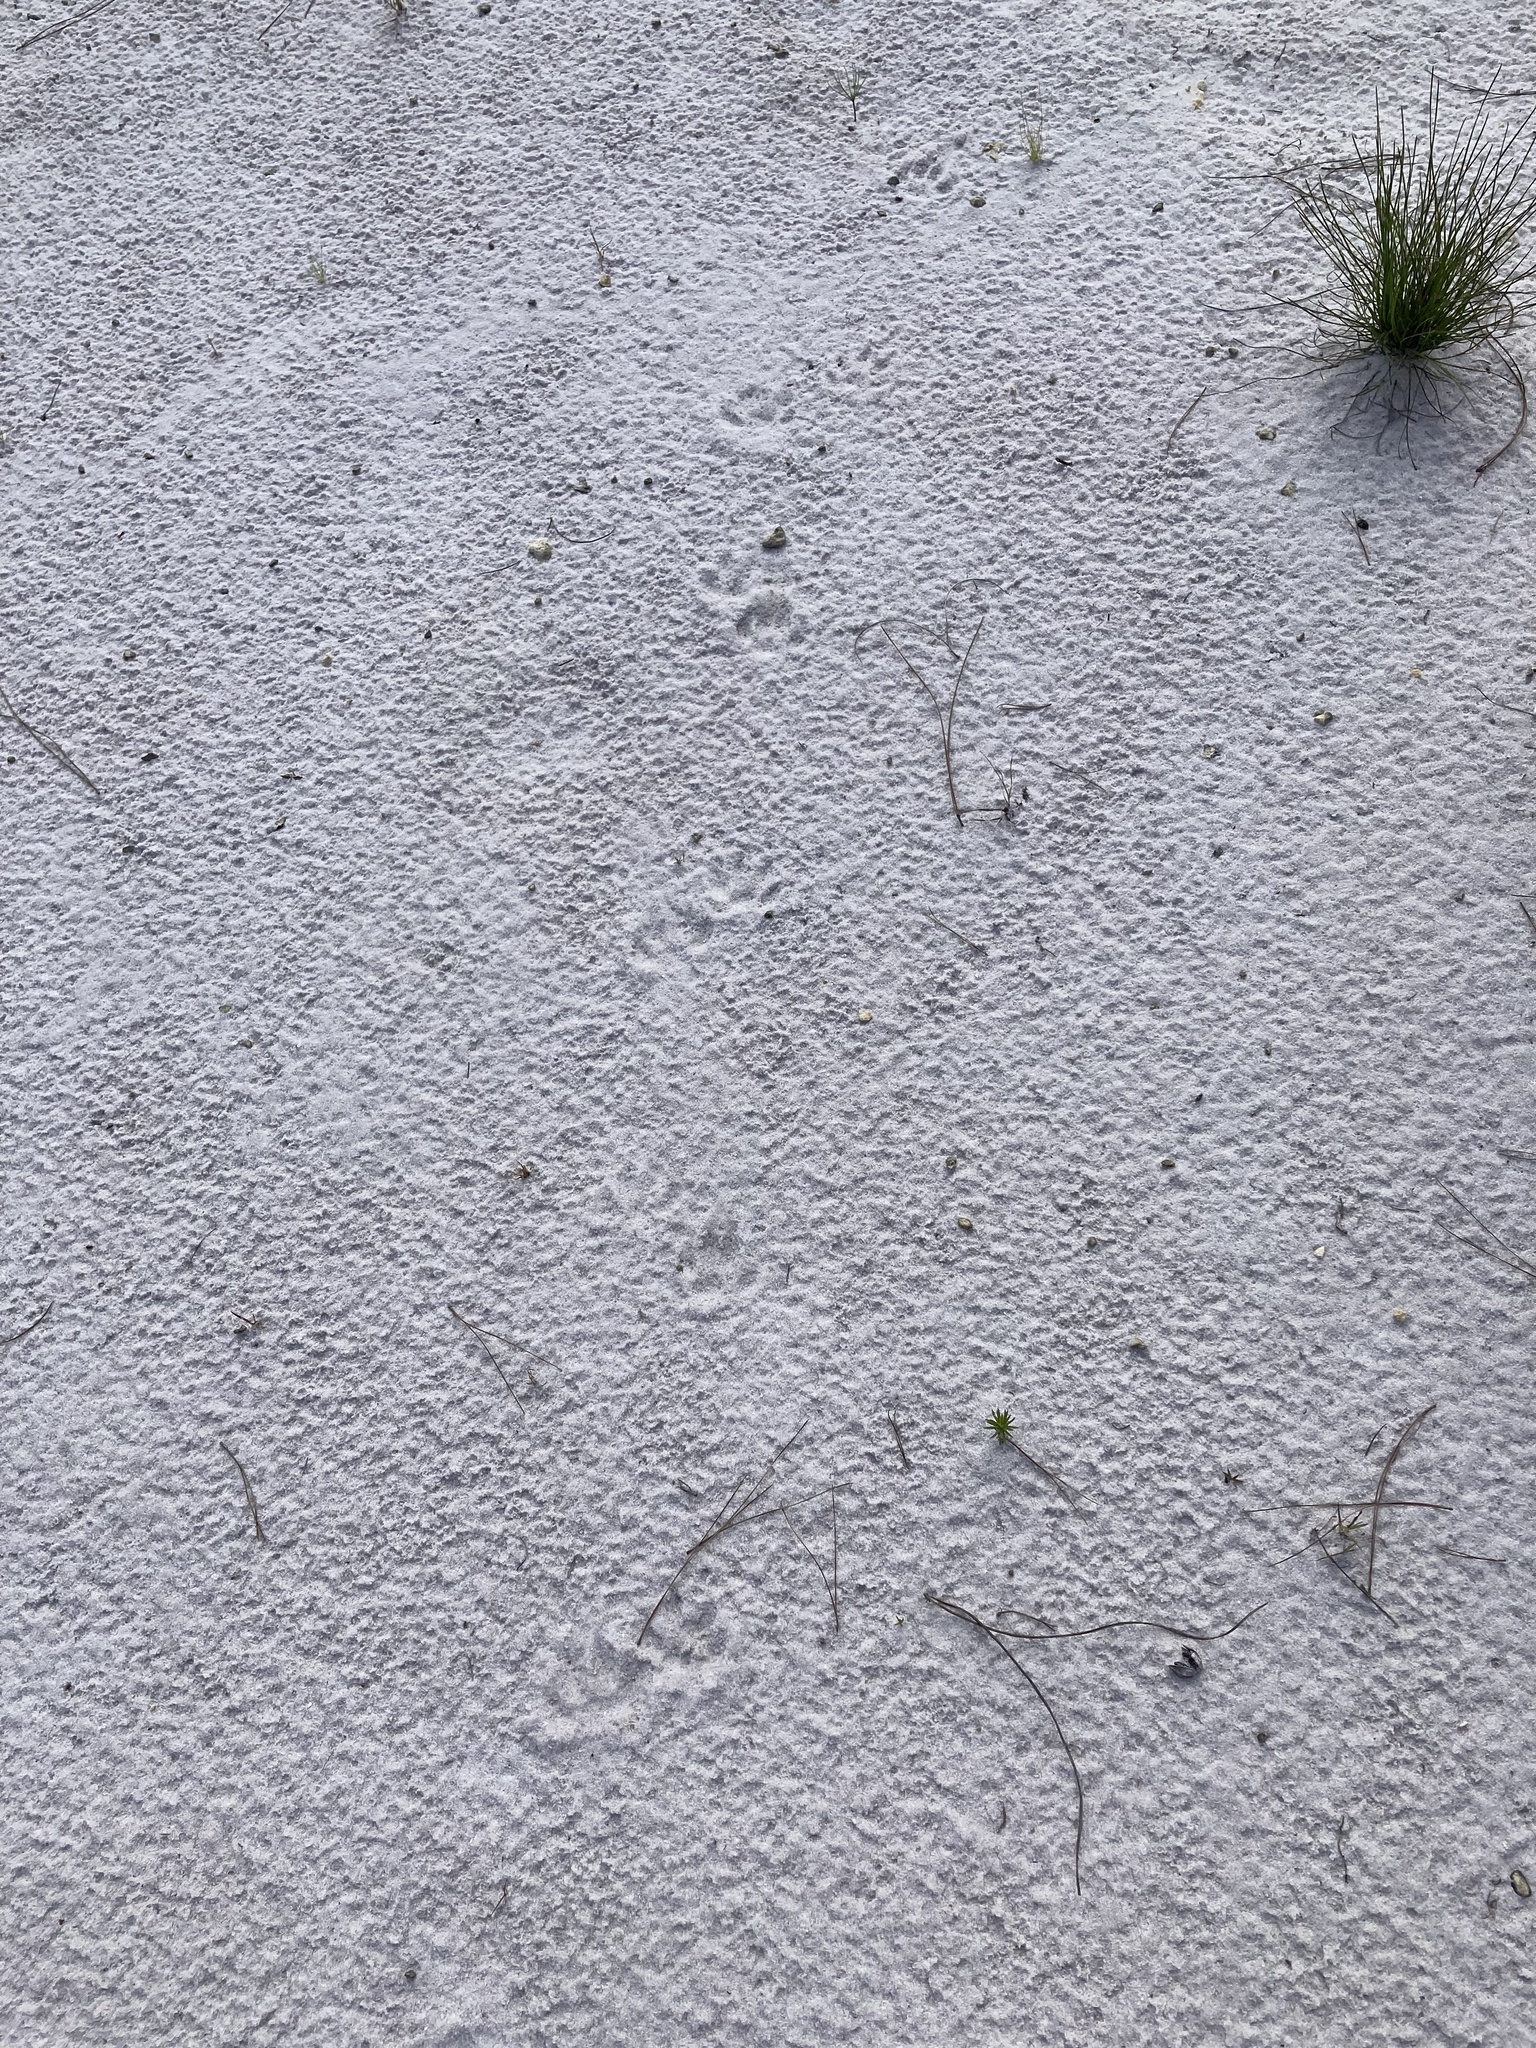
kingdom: Animalia
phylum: Chordata
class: Mammalia
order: Carnivora
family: Procyonidae
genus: Procyon
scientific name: Procyon lotor
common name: Raccoon
